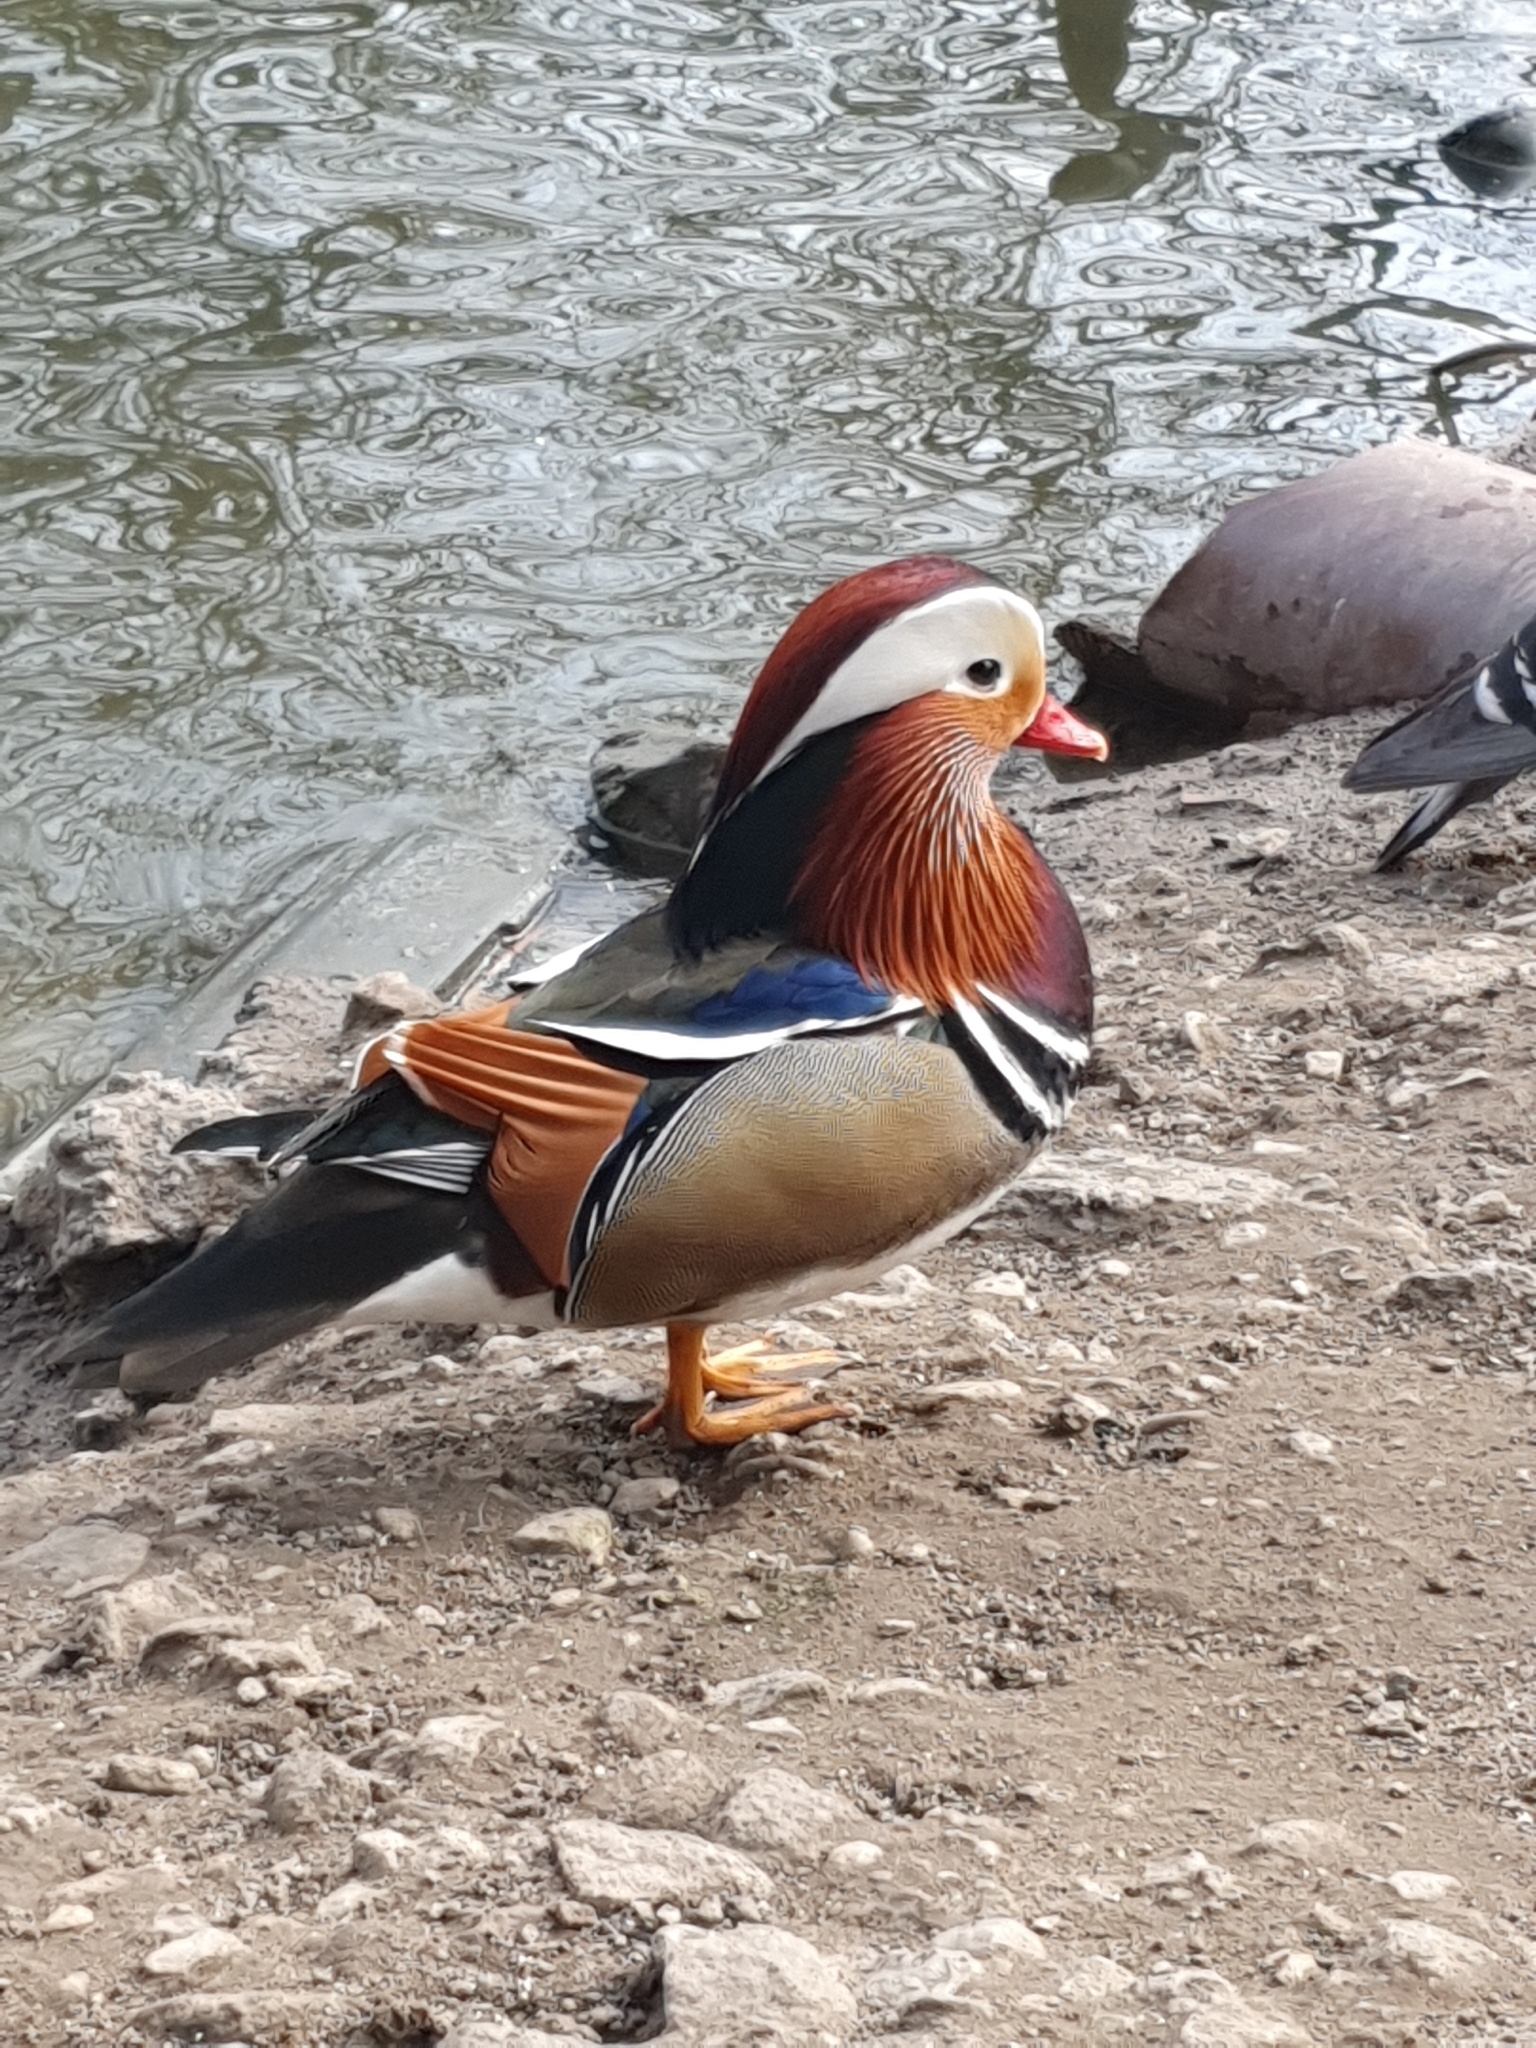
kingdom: Animalia
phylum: Chordata
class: Aves
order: Anseriformes
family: Anatidae
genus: Aix
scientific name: Aix galericulata
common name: Mandarin duck
